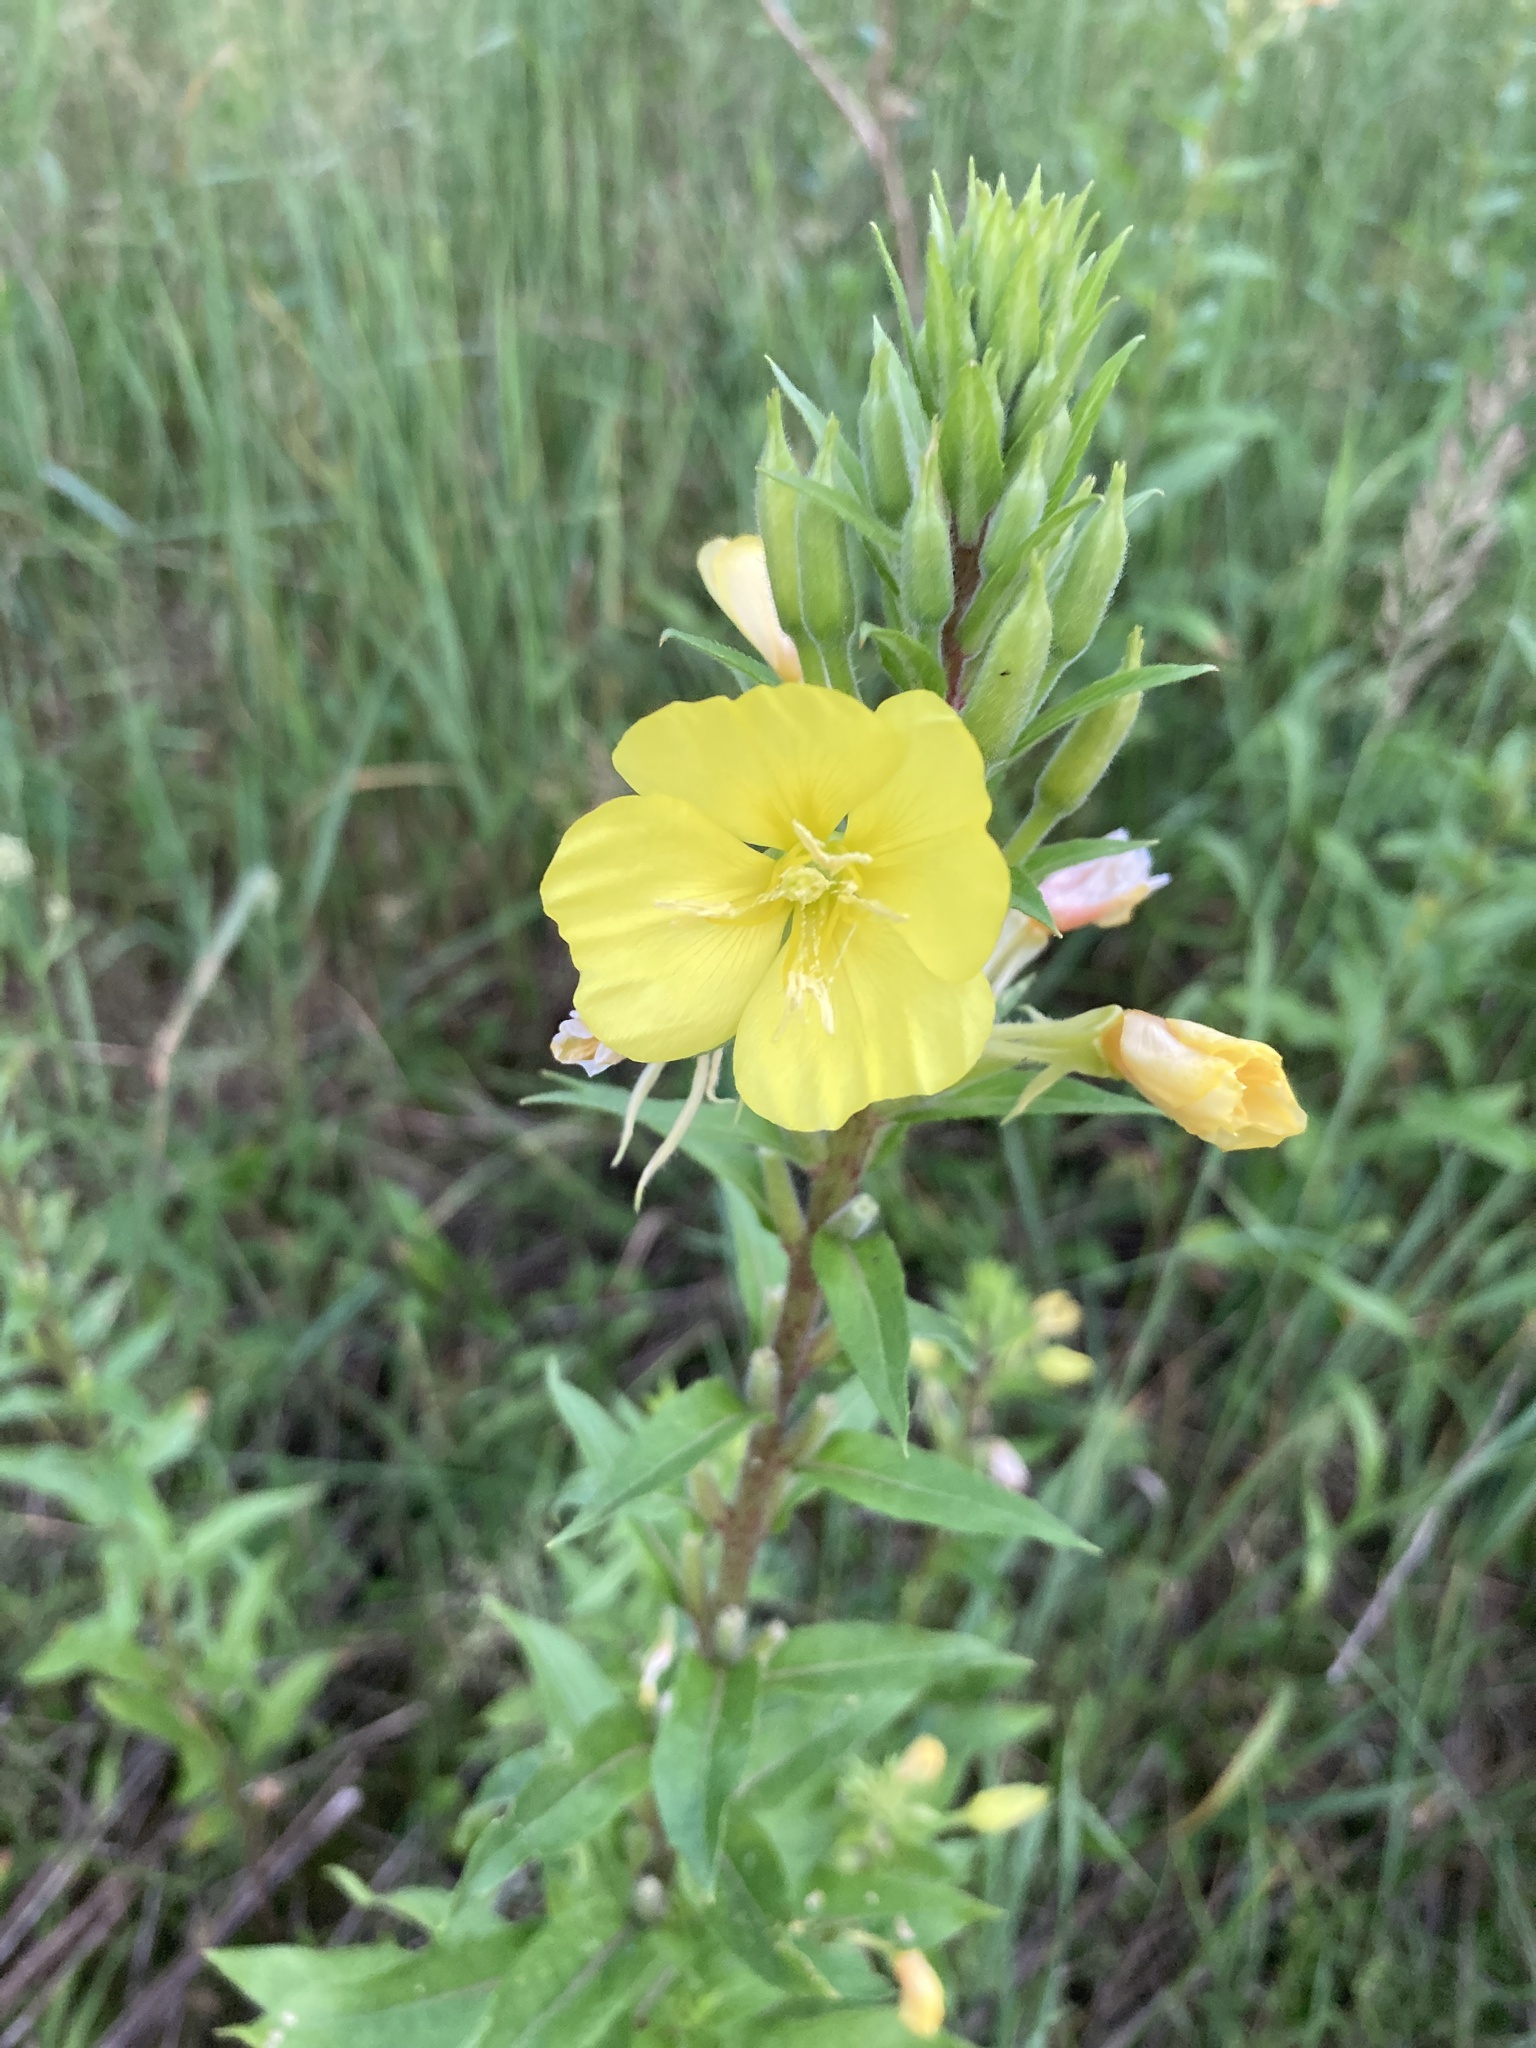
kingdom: Plantae
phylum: Tracheophyta
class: Magnoliopsida
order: Myrtales
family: Onagraceae
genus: Oenothera
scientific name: Oenothera rubricaulis
